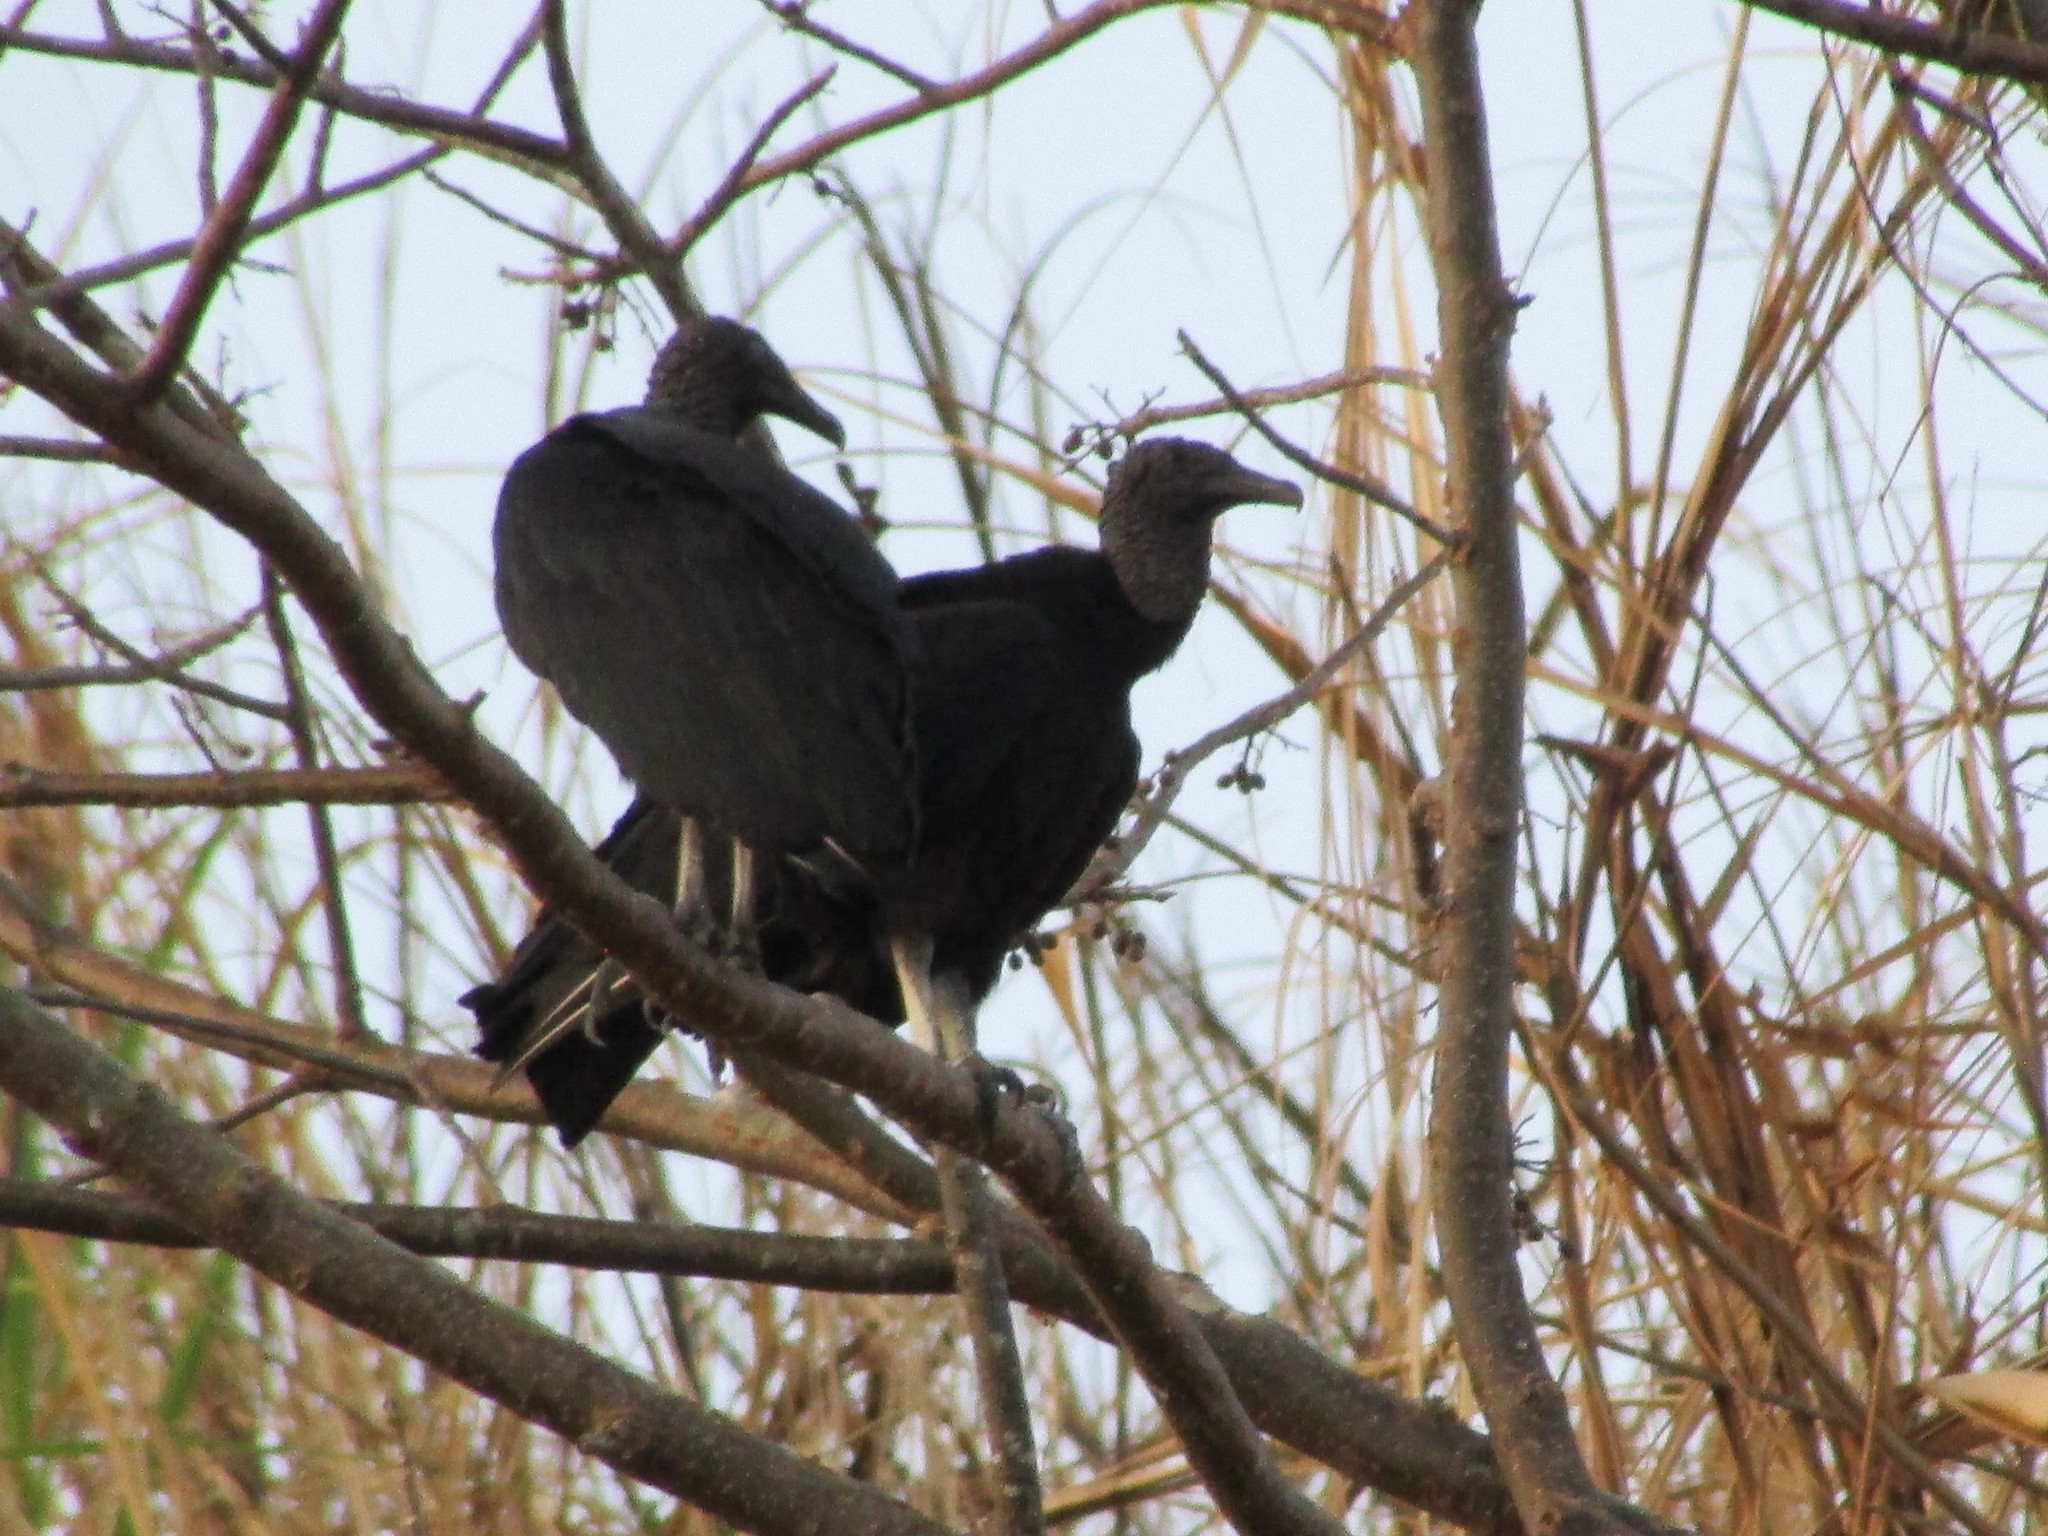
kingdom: Animalia
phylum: Chordata
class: Aves
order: Accipitriformes
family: Cathartidae
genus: Coragyps
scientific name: Coragyps atratus
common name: Black vulture
